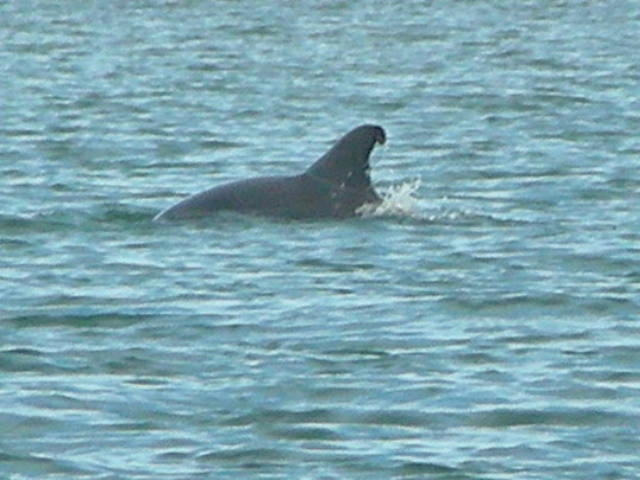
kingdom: Animalia
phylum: Chordata
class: Mammalia
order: Cetacea
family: Delphinidae
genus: Tursiops
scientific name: Tursiops truncatus
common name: Bottlenose dolphin
